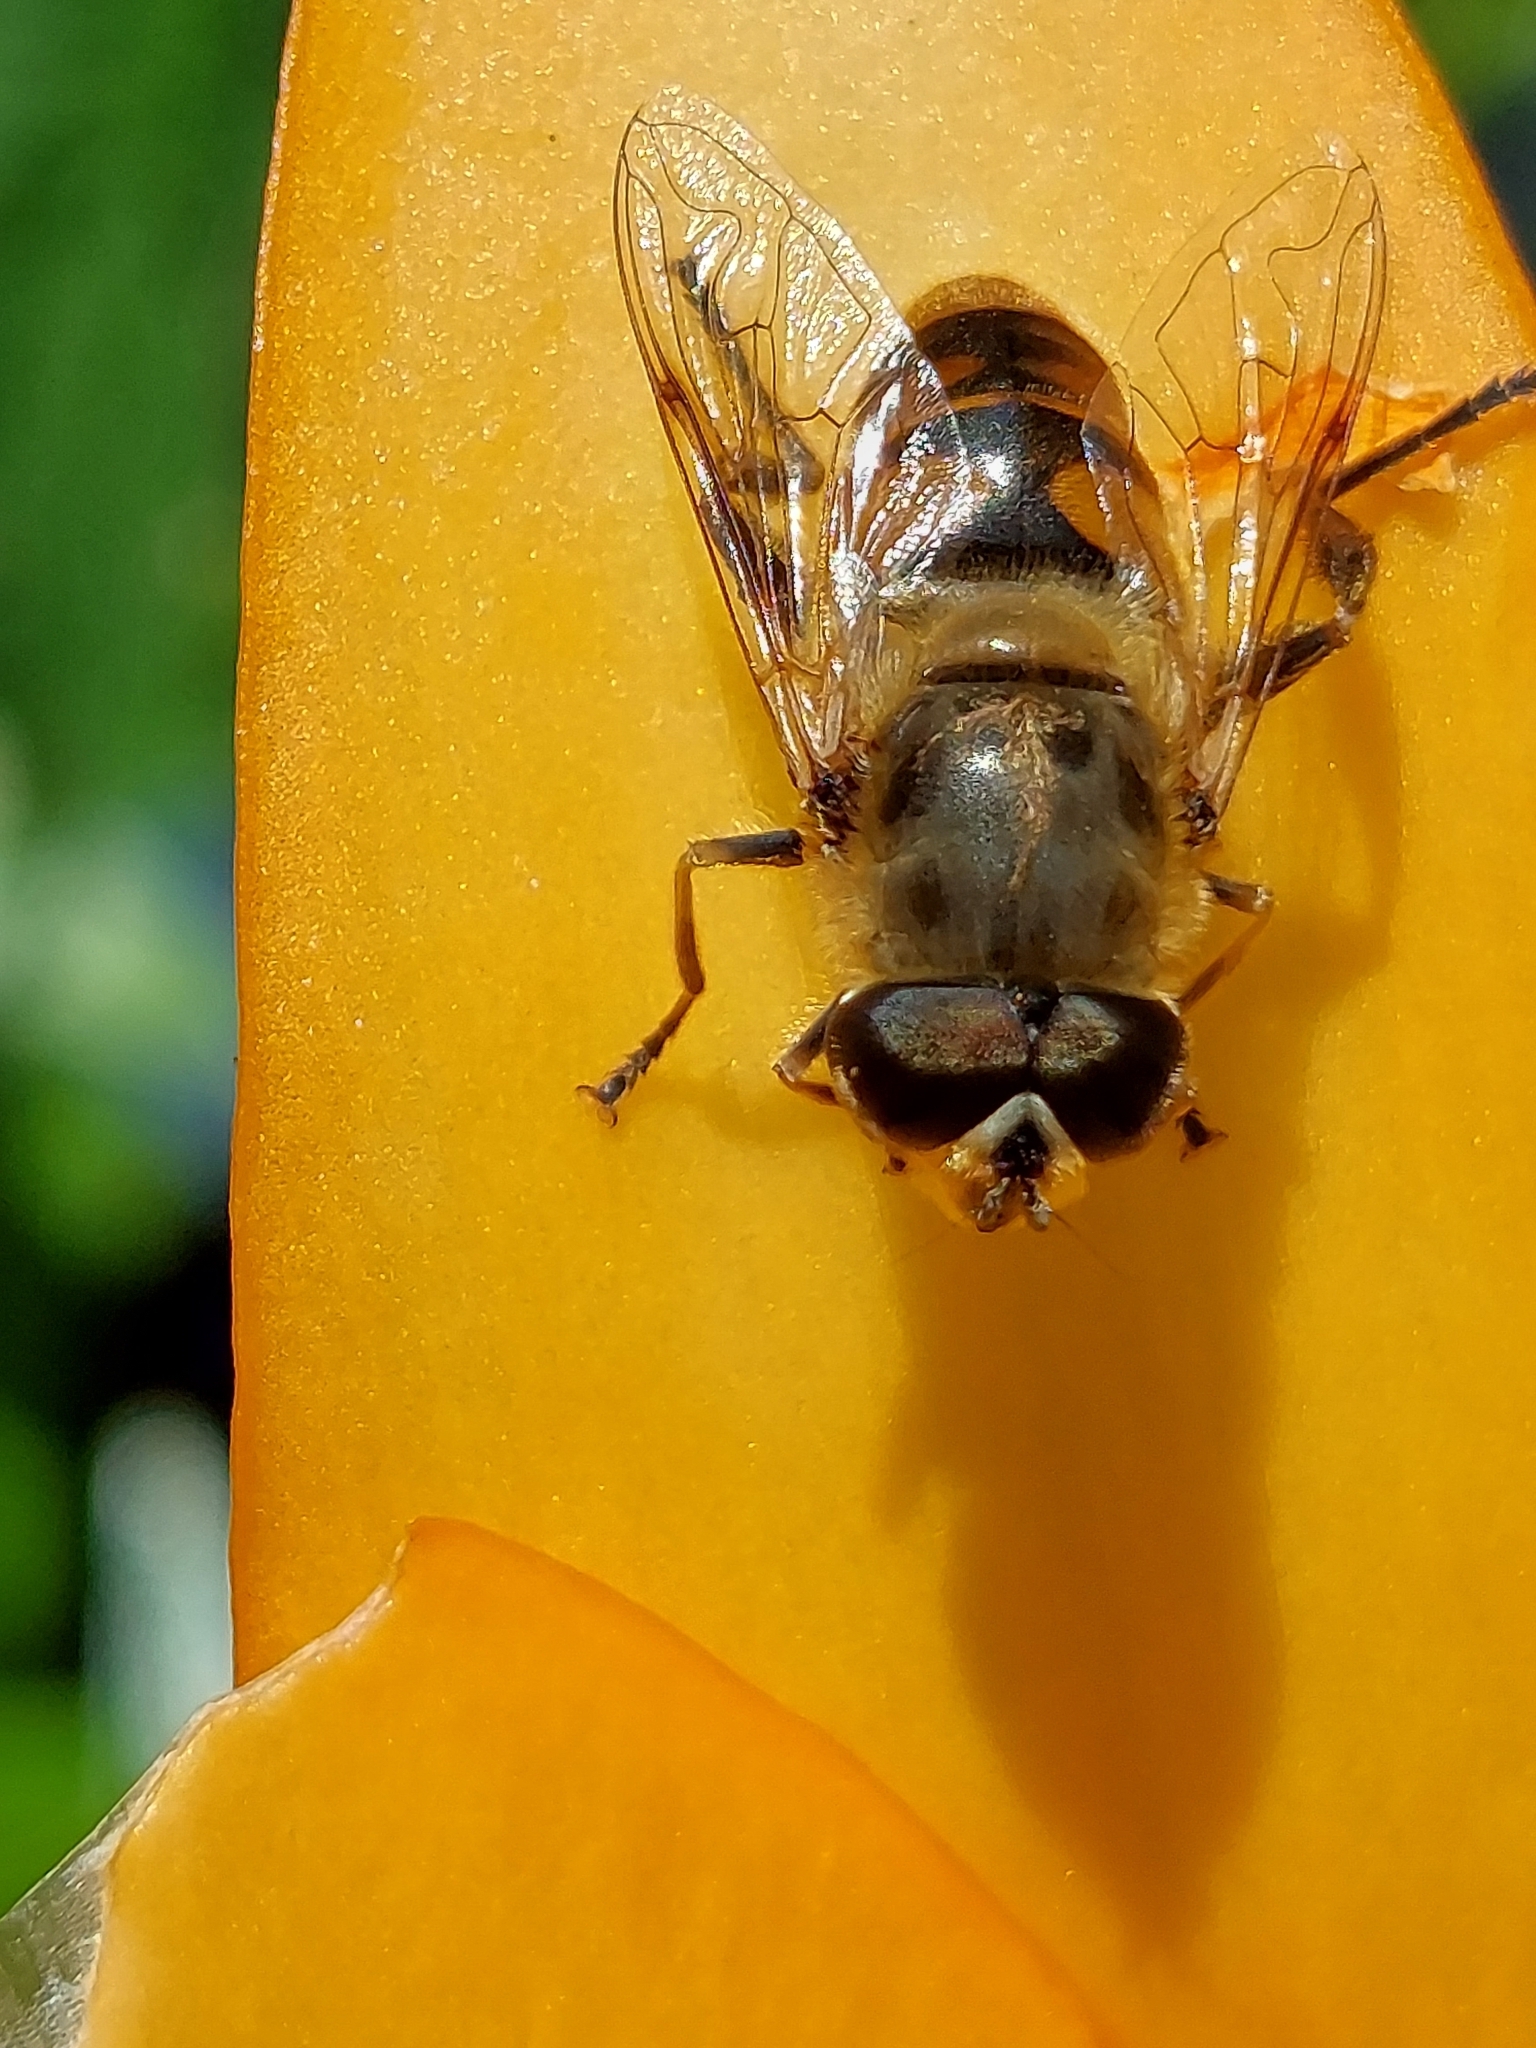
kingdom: Animalia
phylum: Arthropoda
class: Insecta
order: Diptera
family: Syrphidae
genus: Eristalis
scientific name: Eristalis tenax
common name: Drone fly
